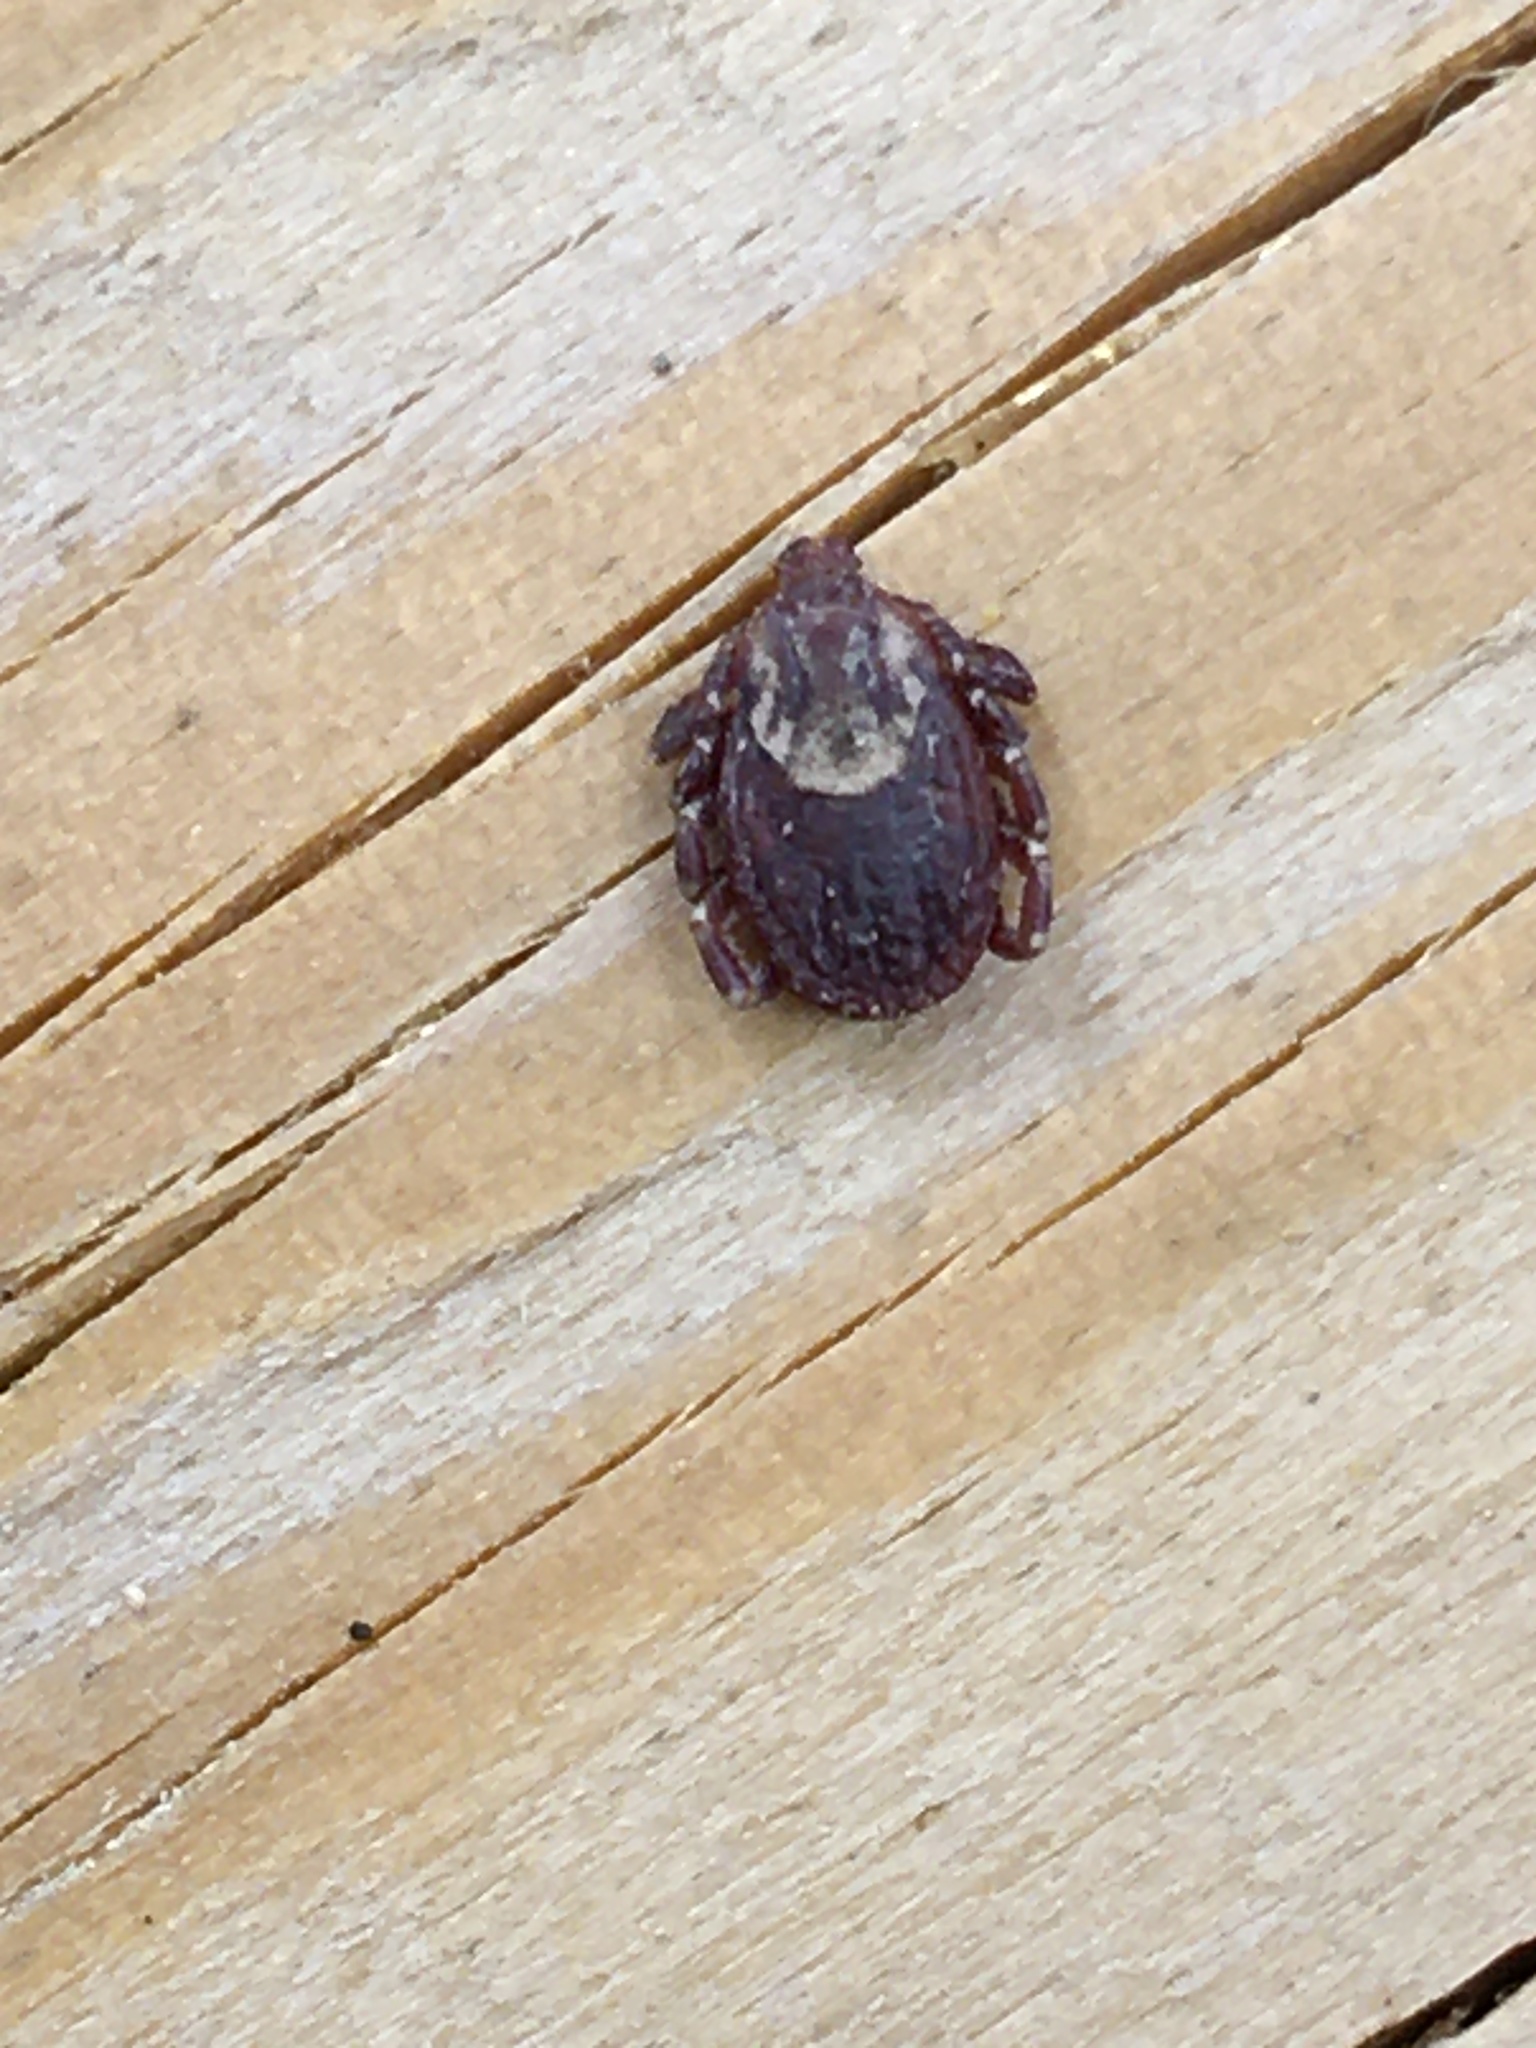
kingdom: Animalia
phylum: Arthropoda
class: Arachnida
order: Ixodida
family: Ixodidae
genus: Dermacentor
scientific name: Dermacentor variabilis
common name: American dog tick
